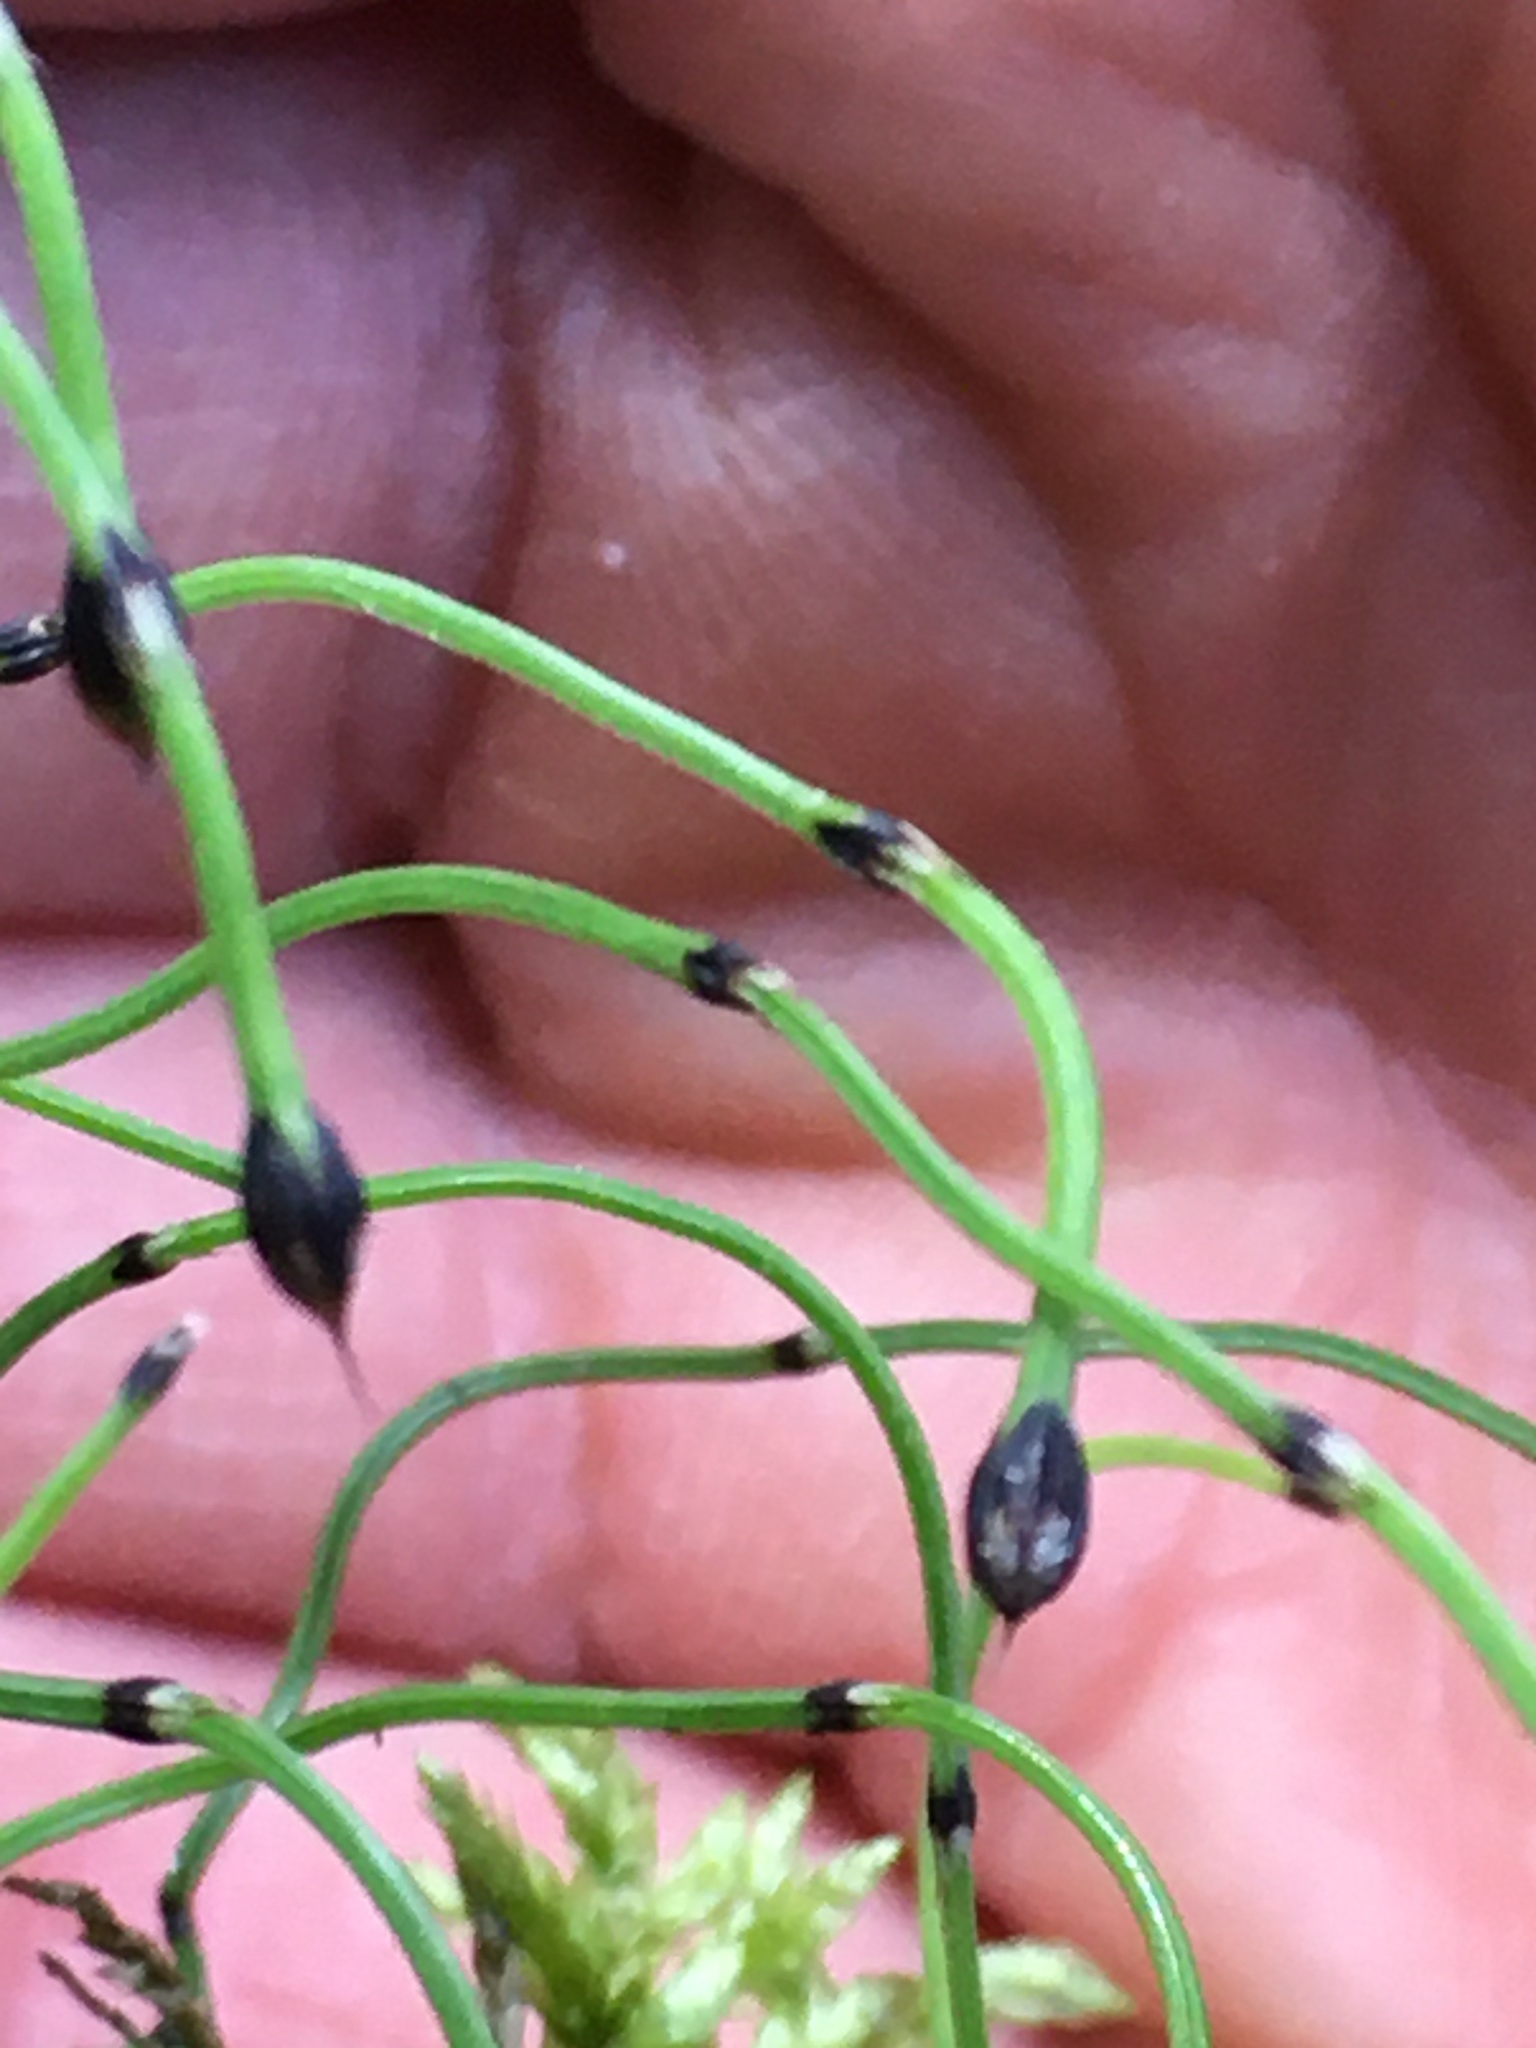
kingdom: Plantae
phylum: Tracheophyta
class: Polypodiopsida
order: Equisetales
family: Equisetaceae
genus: Equisetum
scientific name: Equisetum scirpoides
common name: Delicate horsetail
